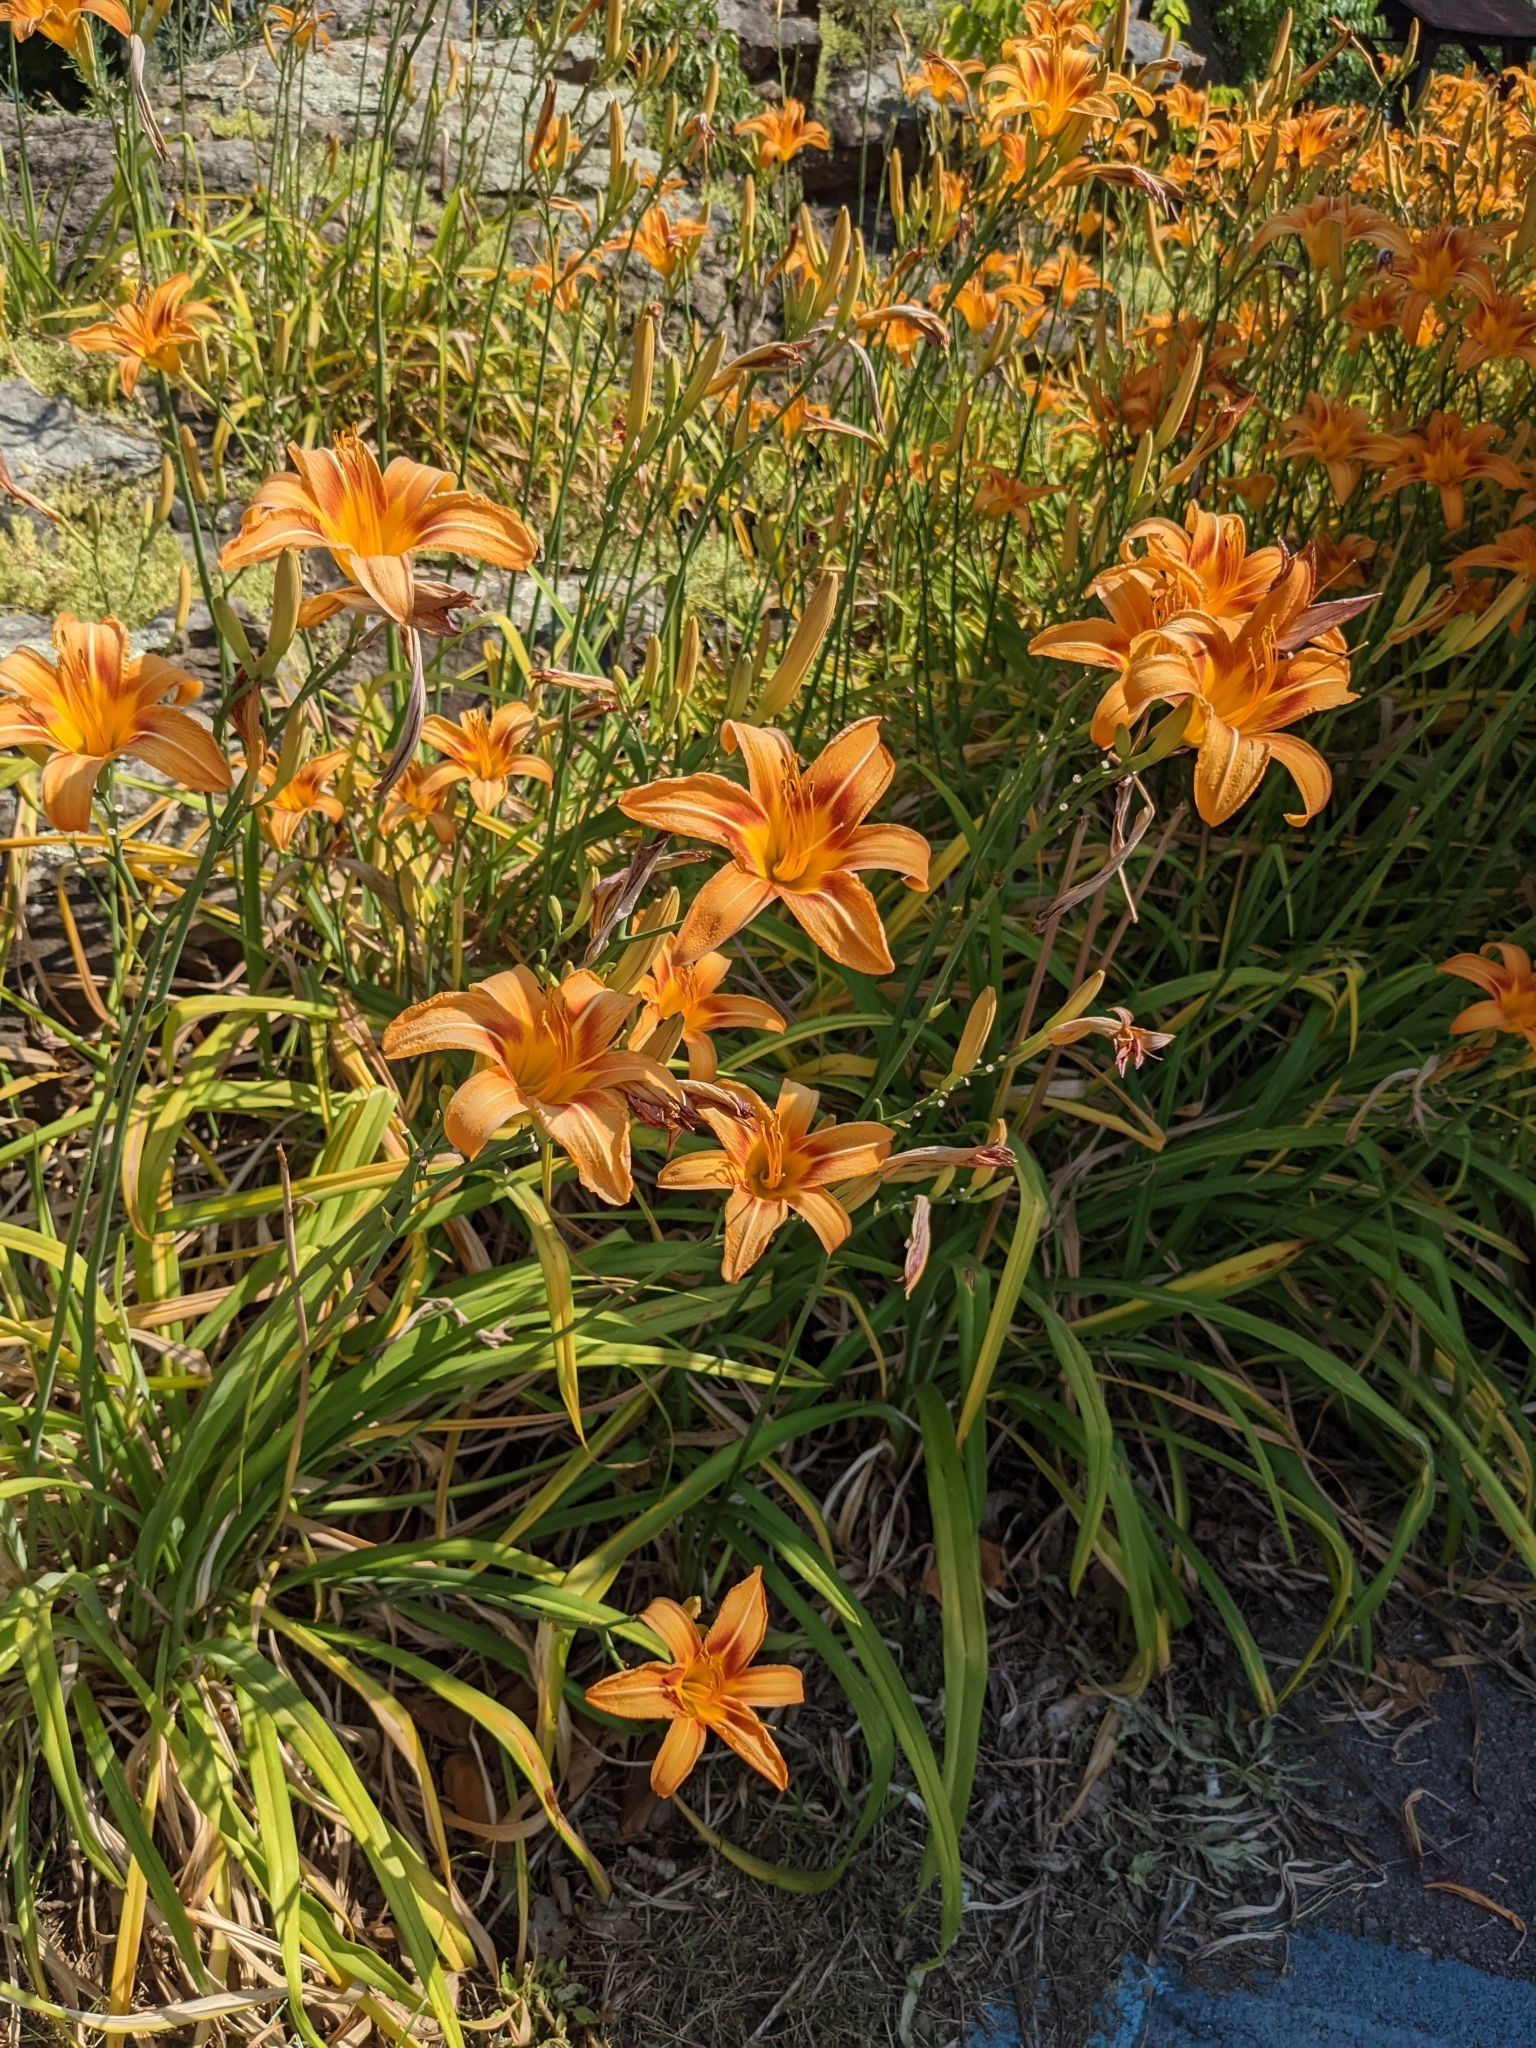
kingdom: Plantae
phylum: Tracheophyta
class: Liliopsida
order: Asparagales
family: Asphodelaceae
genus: Hemerocallis
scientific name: Hemerocallis fulva
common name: Orange day-lily
